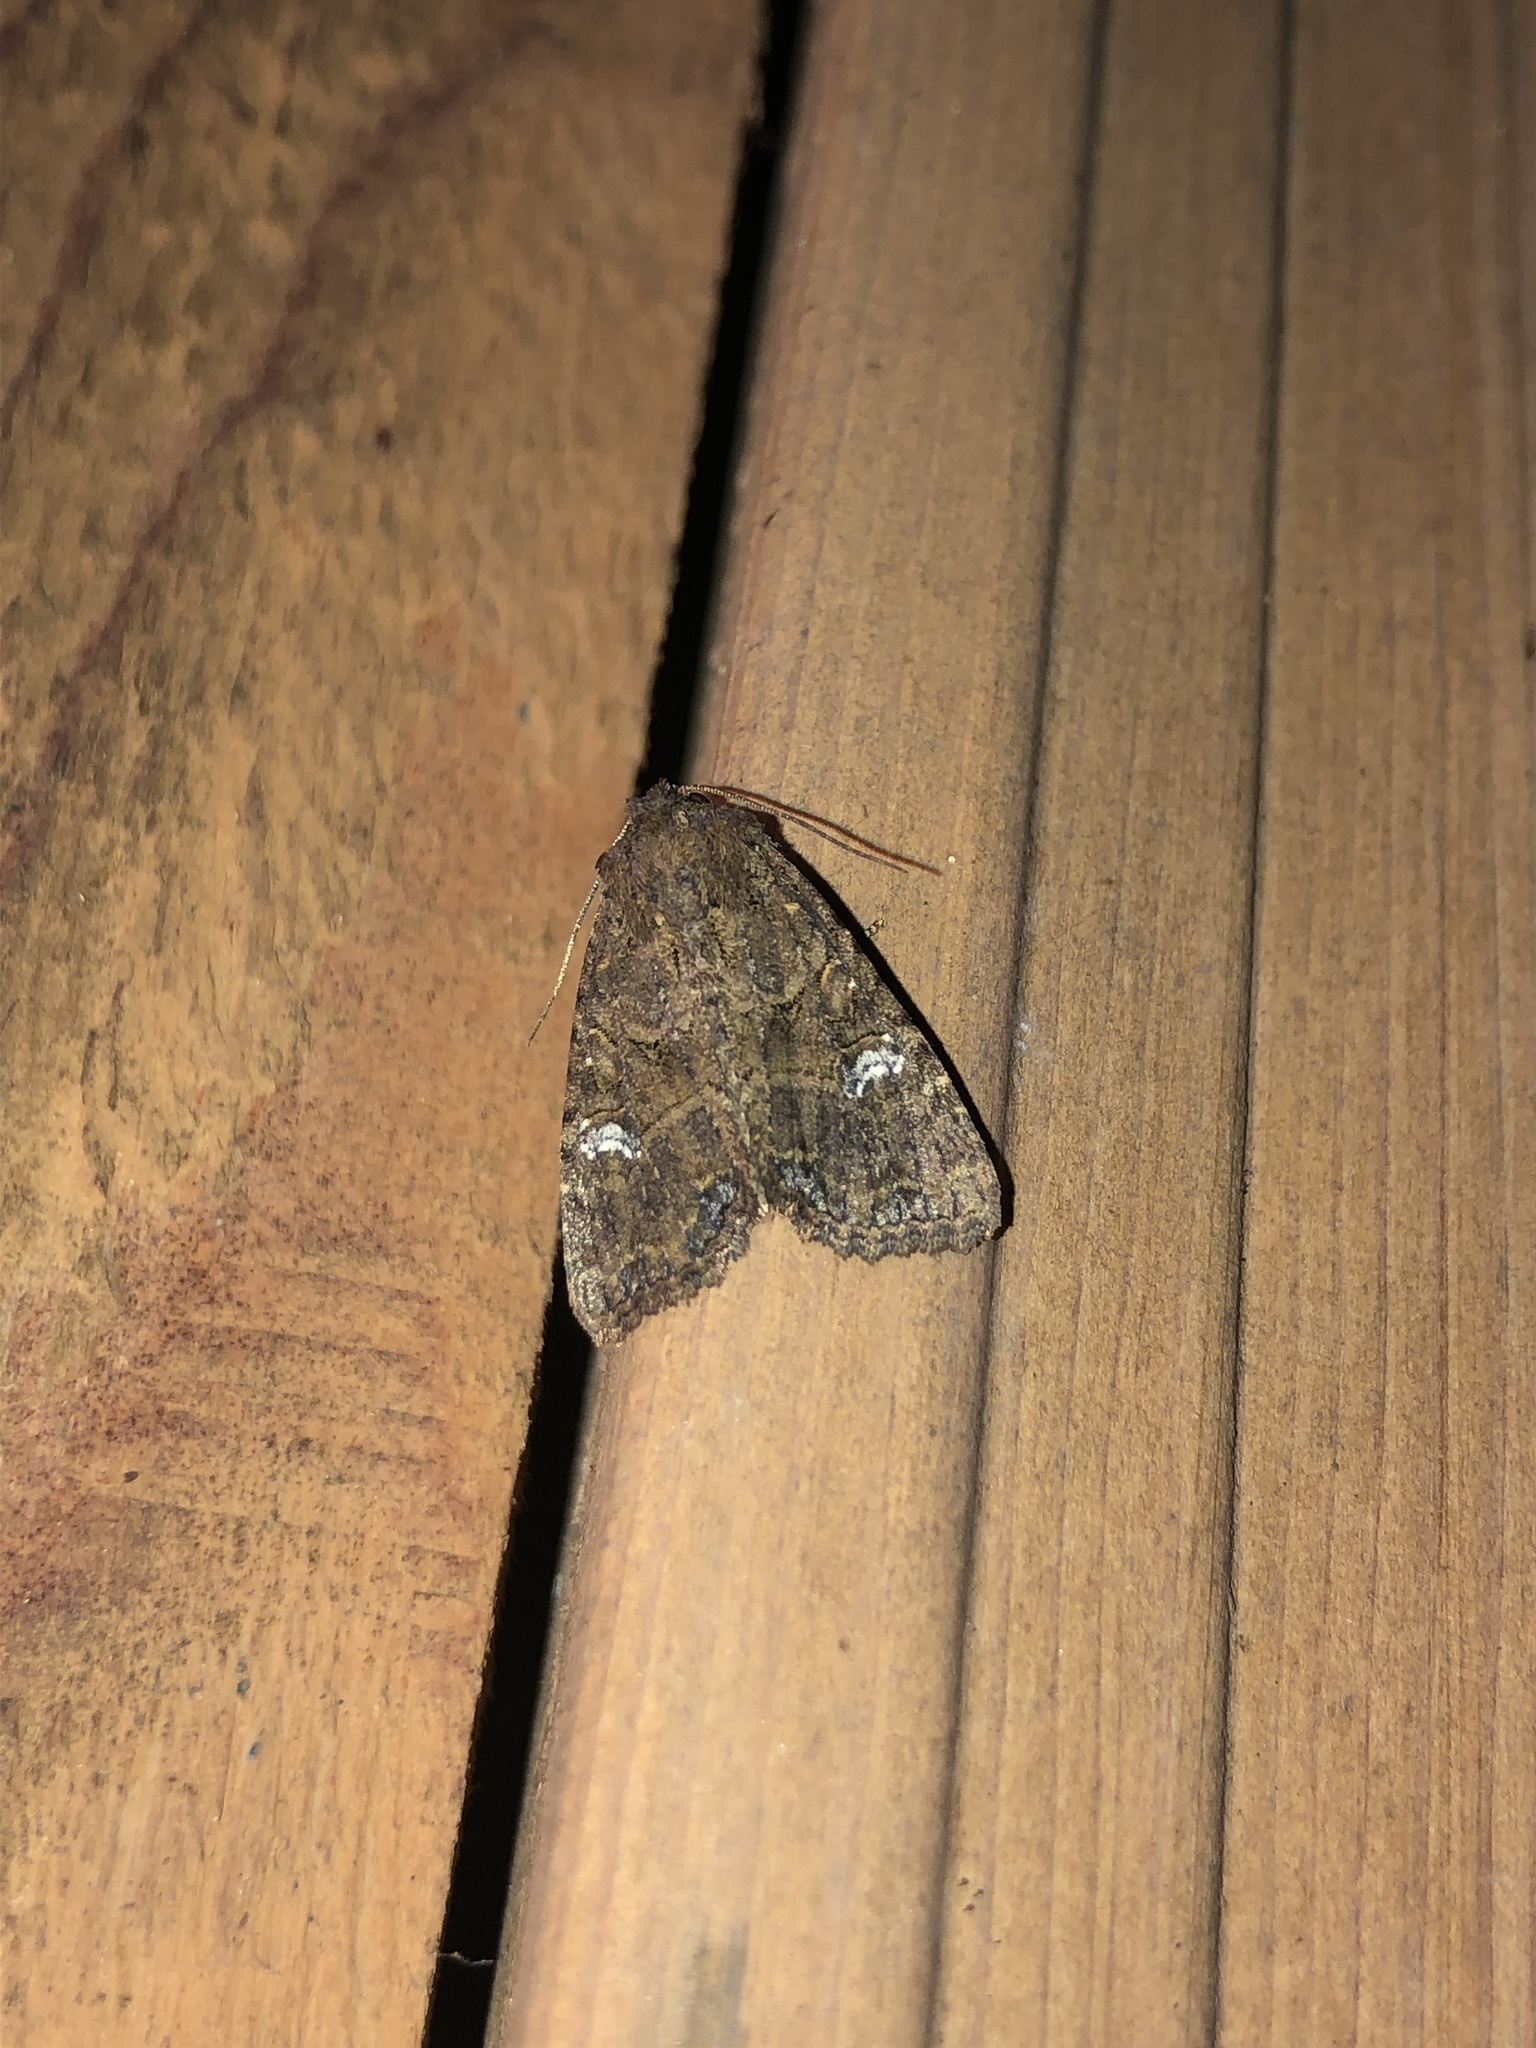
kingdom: Animalia
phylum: Arthropoda
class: Insecta
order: Lepidoptera
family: Noctuidae
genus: Mesapamea
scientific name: Mesapamea secalis
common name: Common rustic
